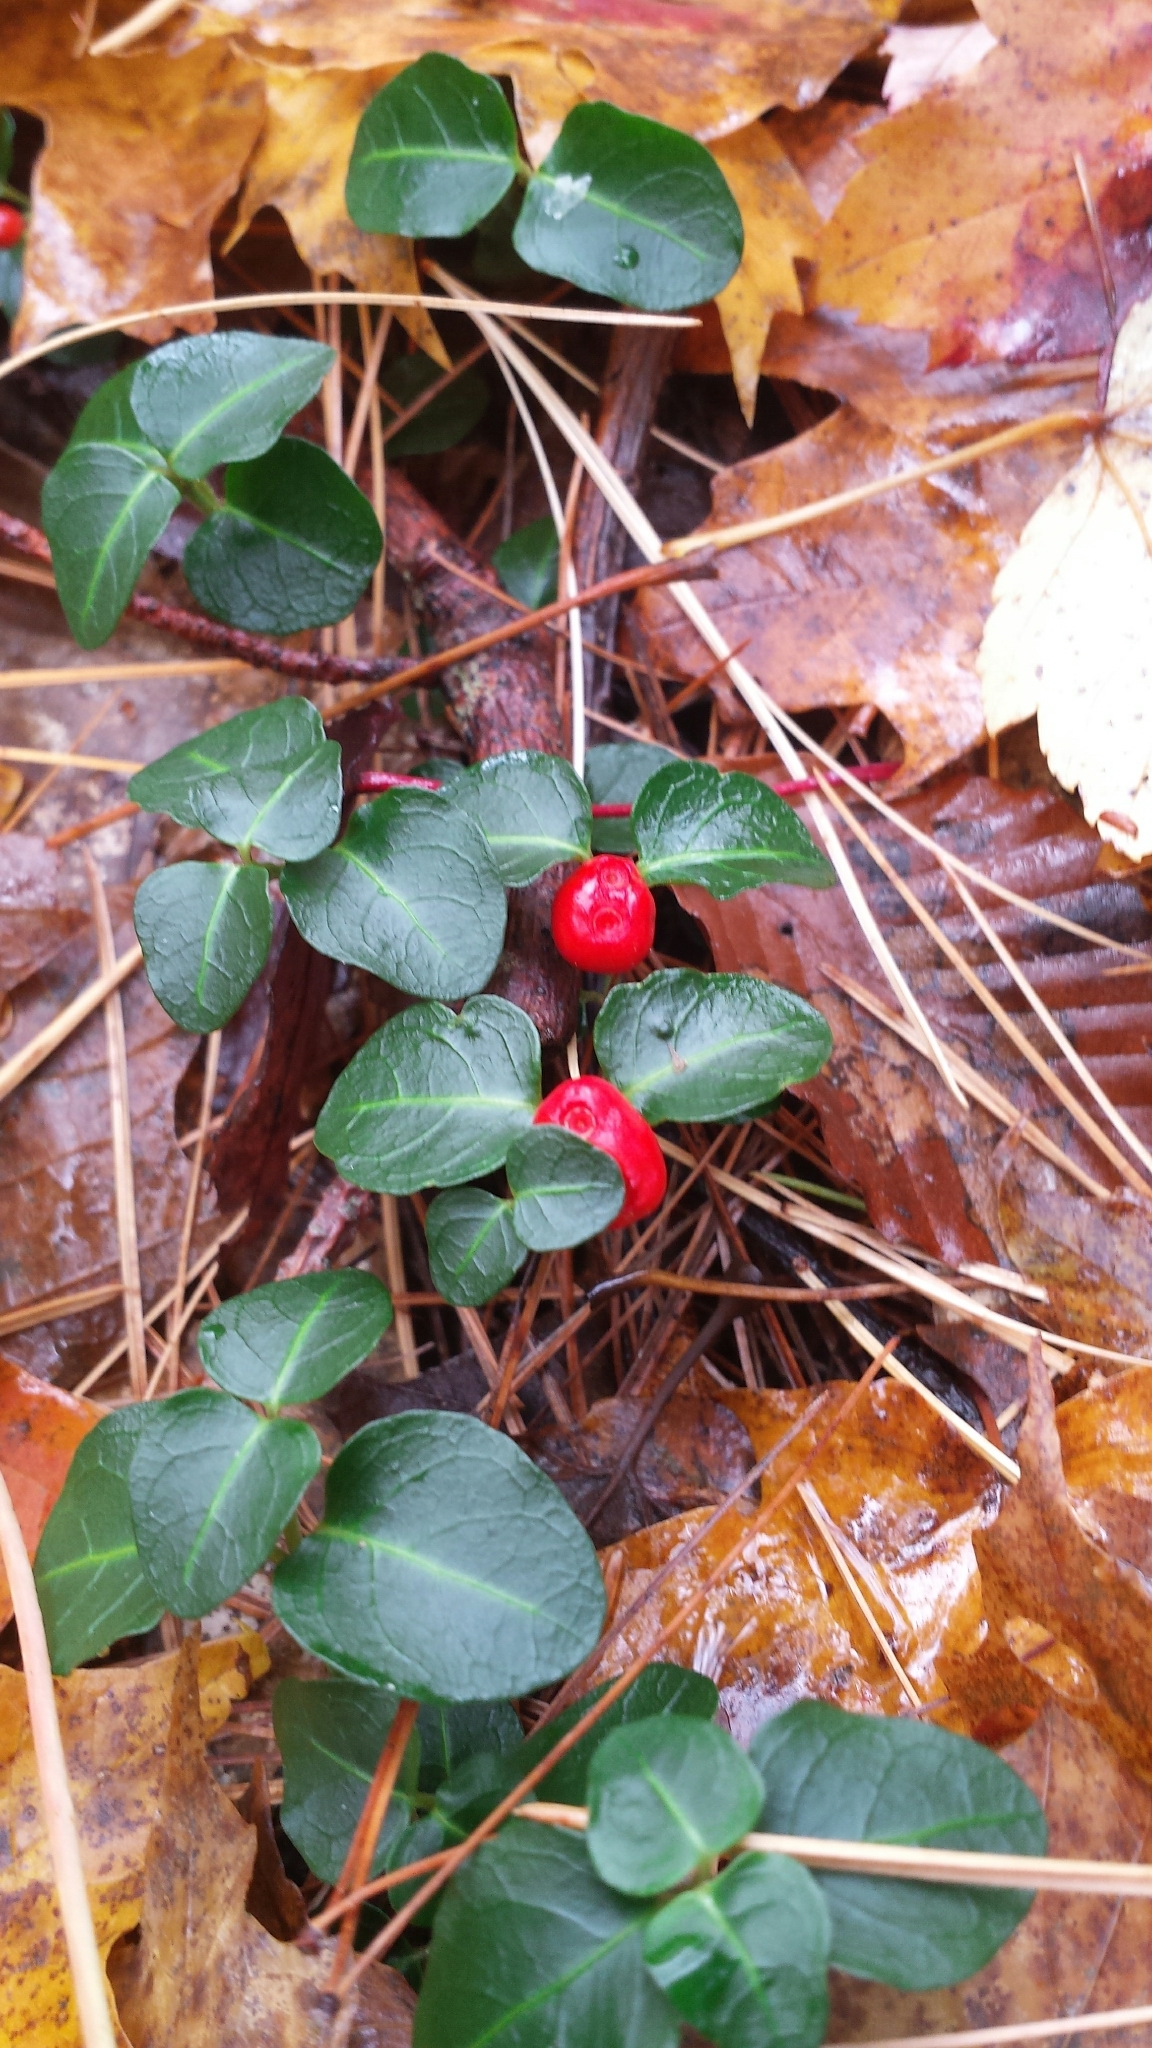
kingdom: Plantae
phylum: Tracheophyta
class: Magnoliopsida
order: Gentianales
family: Rubiaceae
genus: Mitchella
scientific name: Mitchella repens
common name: Partridge-berry
